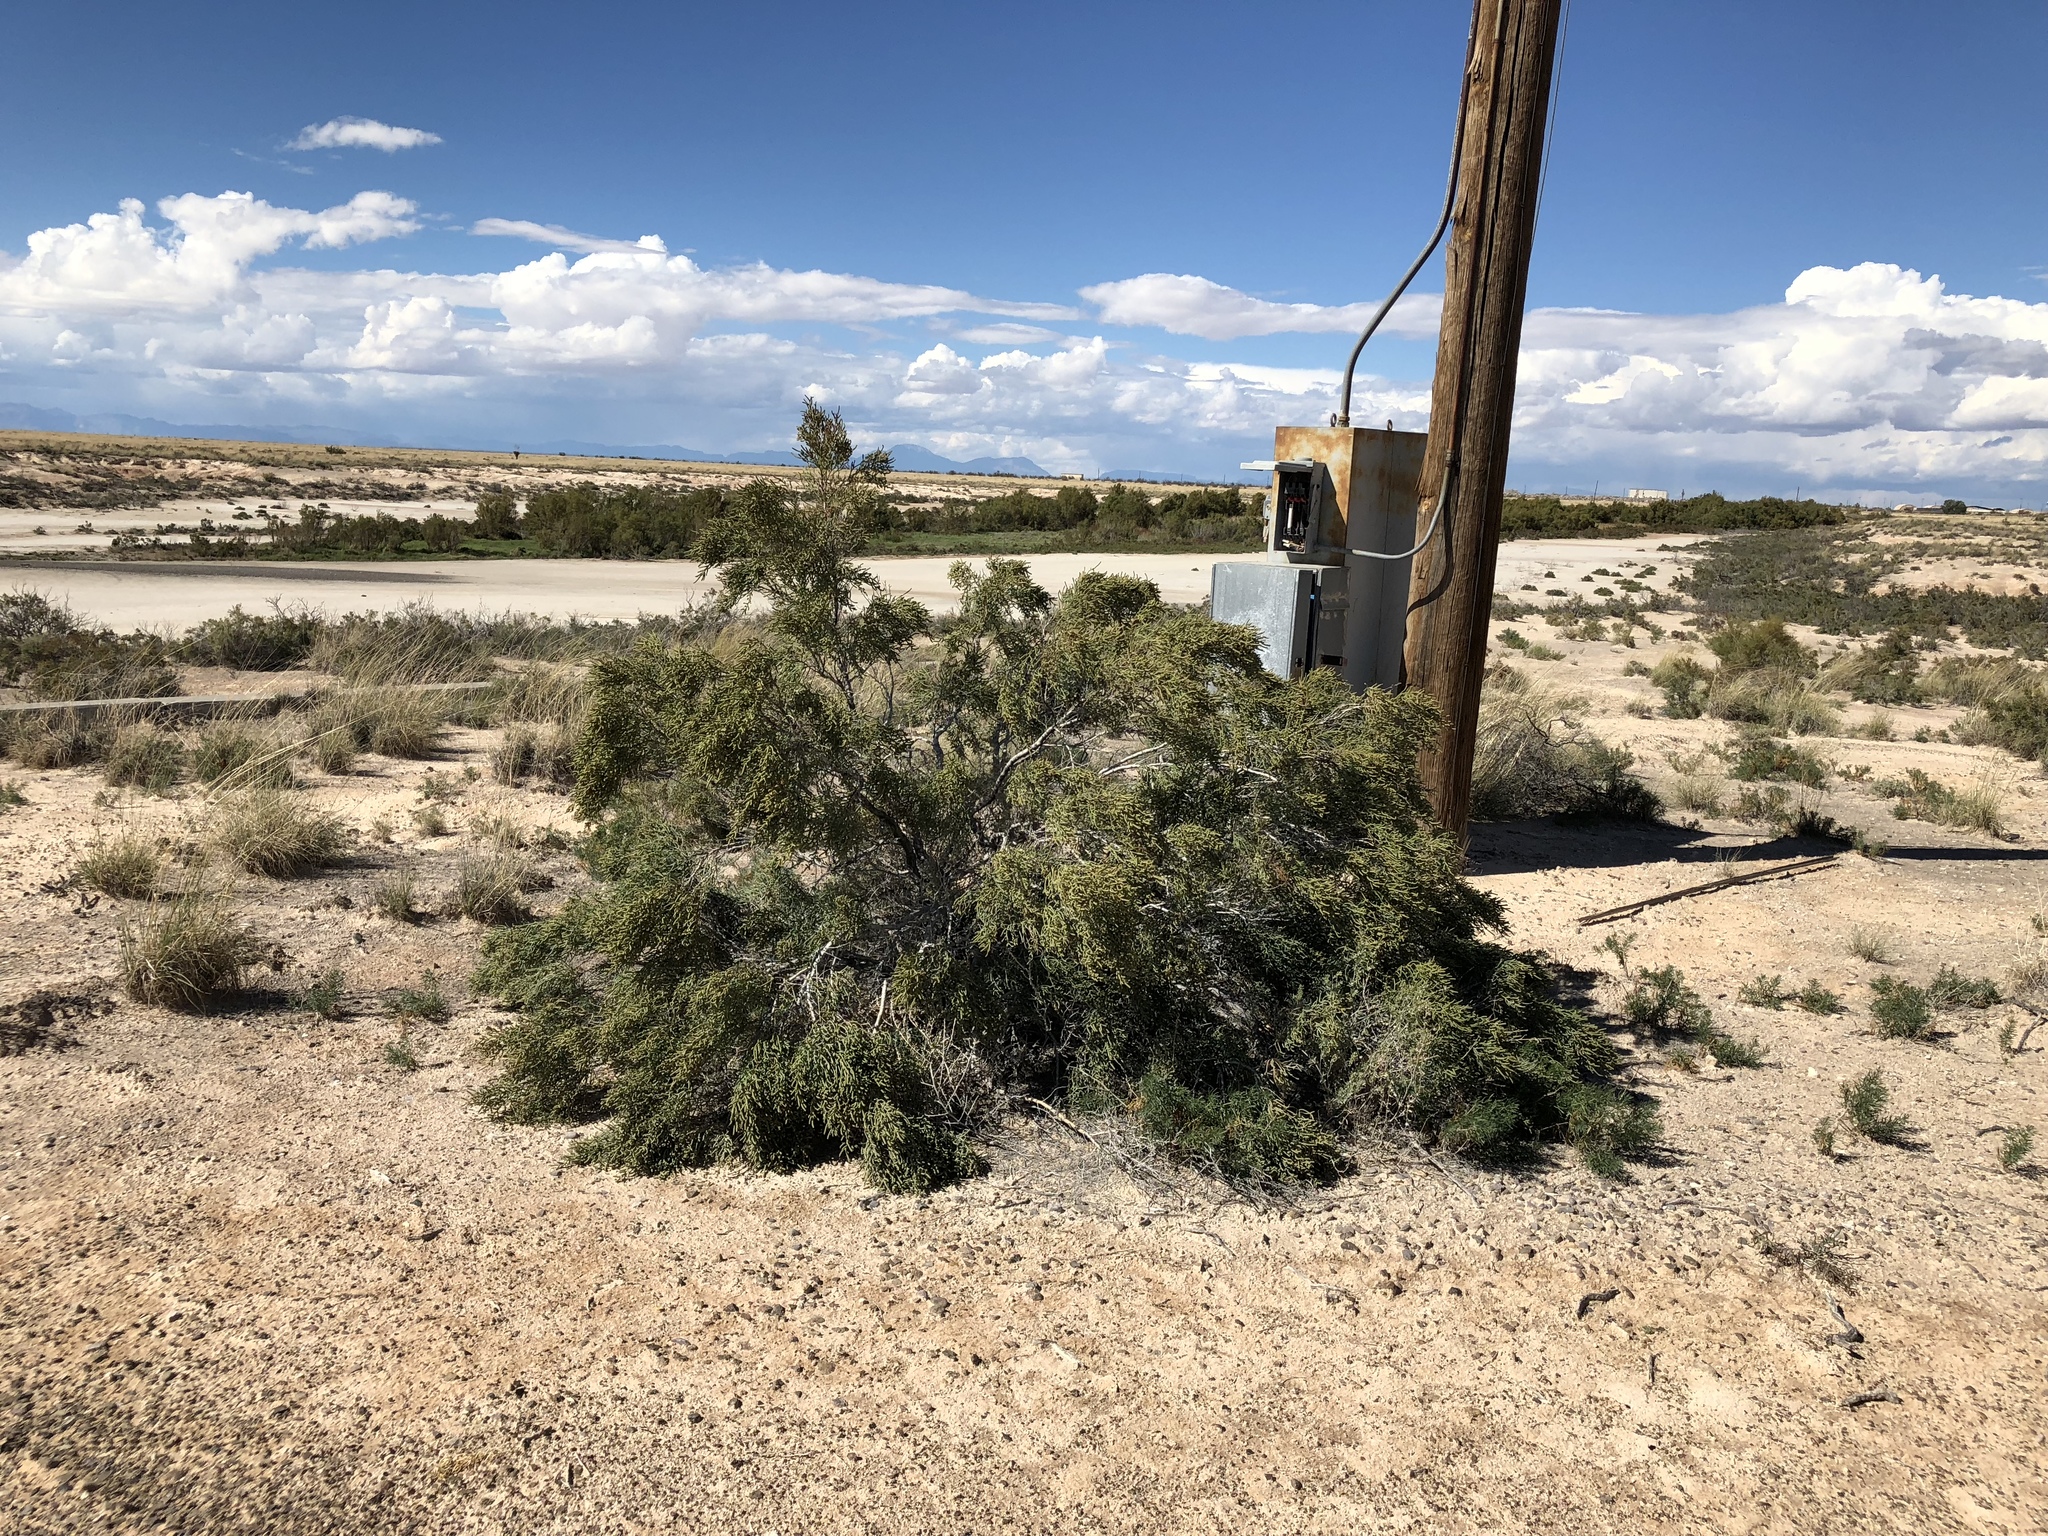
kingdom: Plantae
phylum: Tracheophyta
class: Magnoliopsida
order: Caryophyllales
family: Amaranthaceae
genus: Allenrolfea
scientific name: Allenrolfea occidentalis
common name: Iodine-bush
